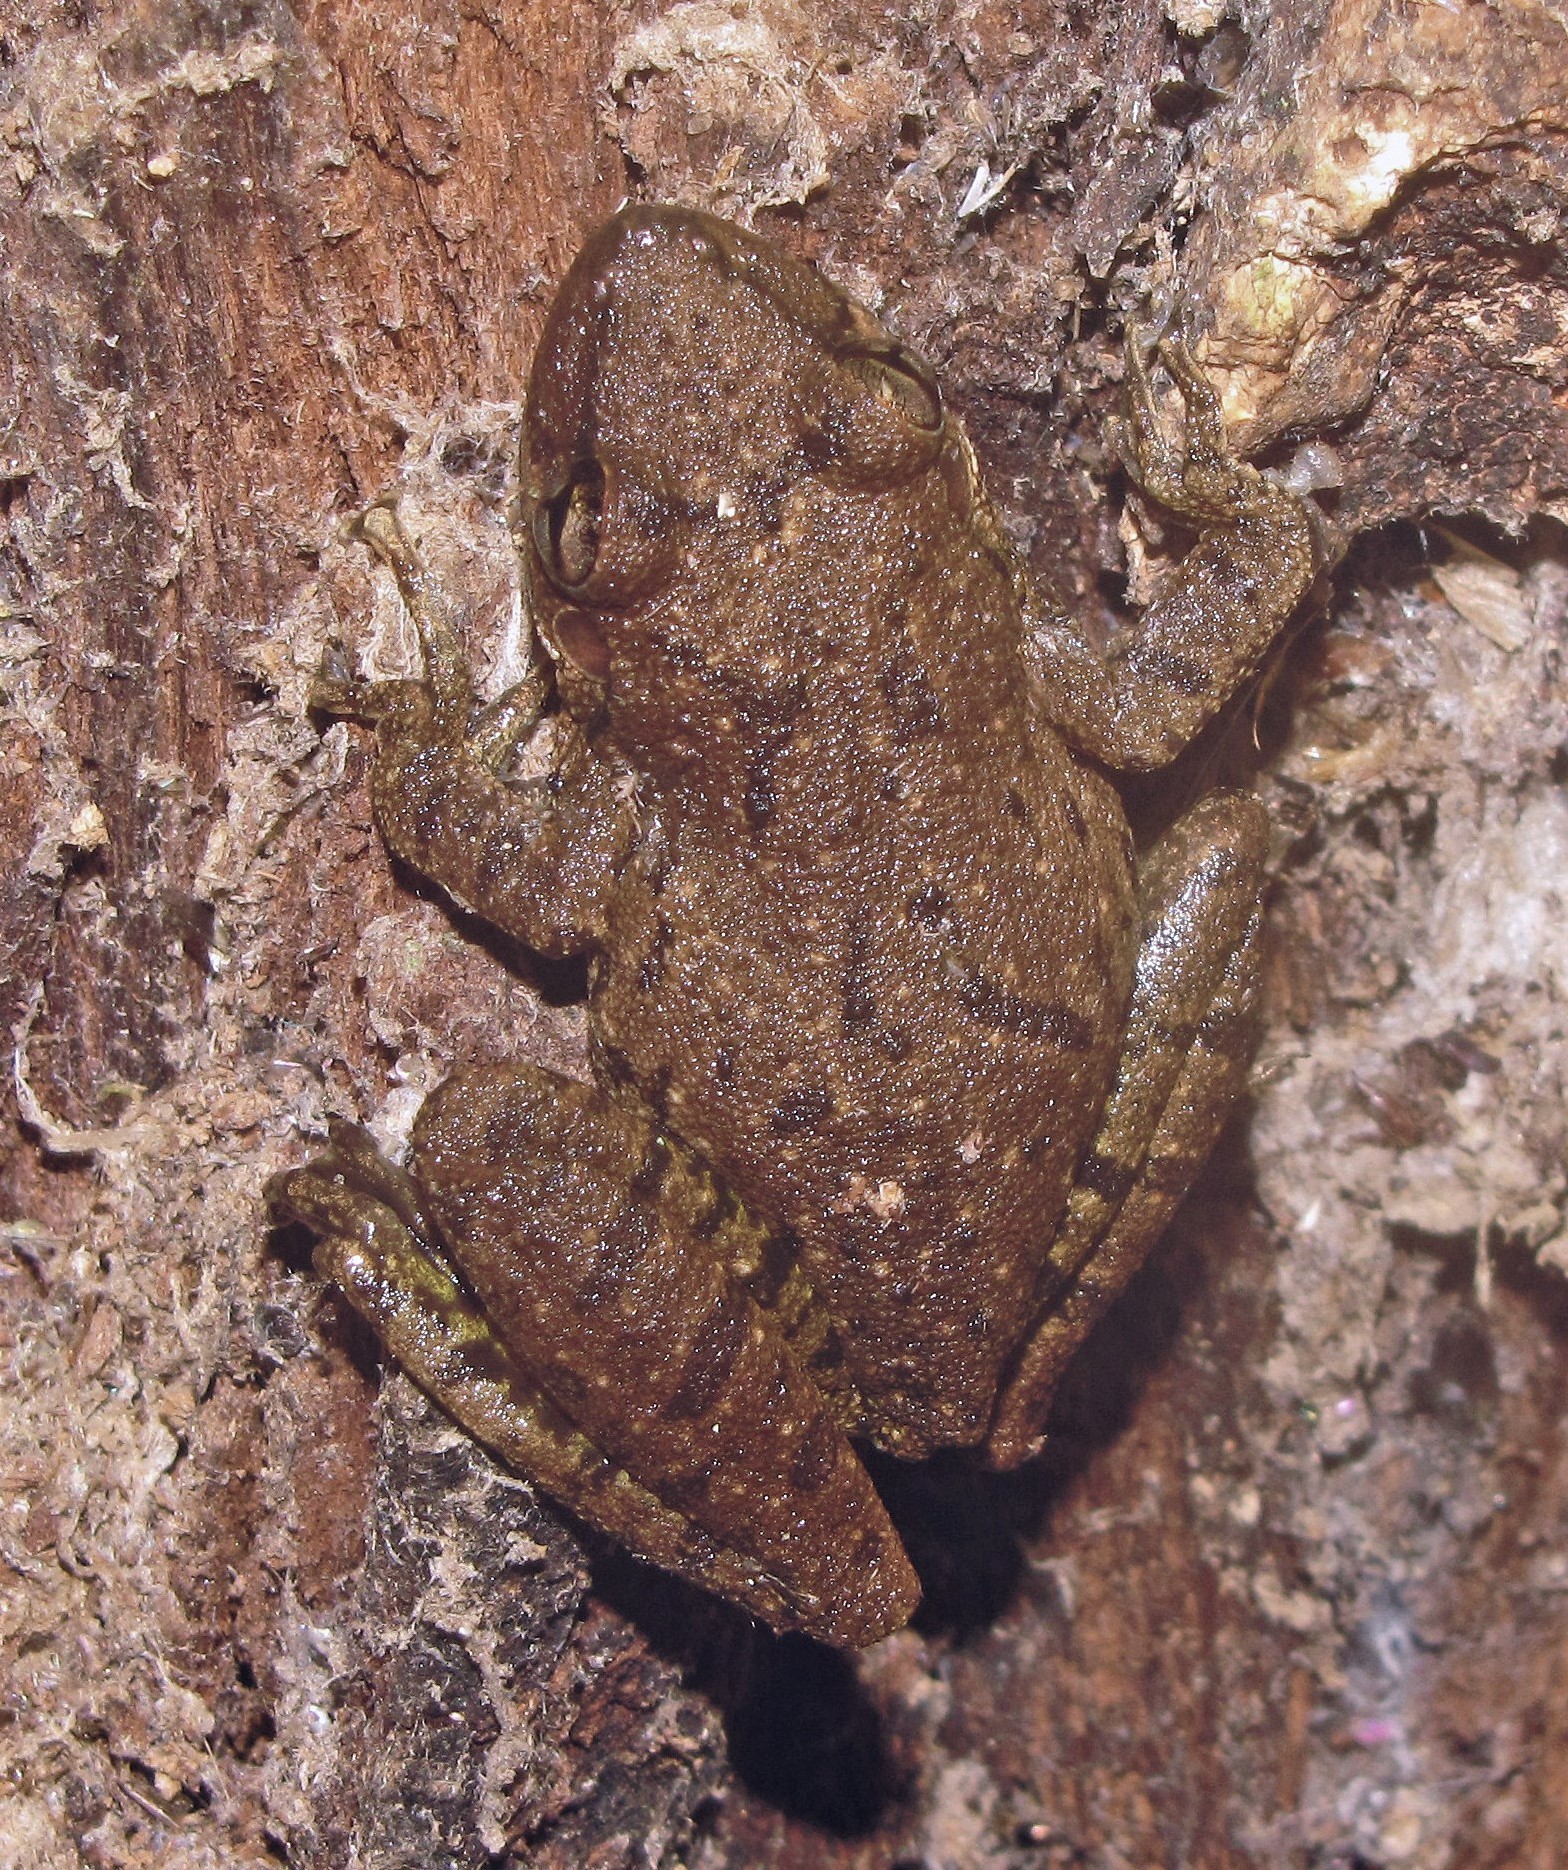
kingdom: Animalia
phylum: Chordata
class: Amphibia
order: Anura
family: Hylidae
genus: Scinax
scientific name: Scinax fuscovarius
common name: Fuscous-blotched treefrog
